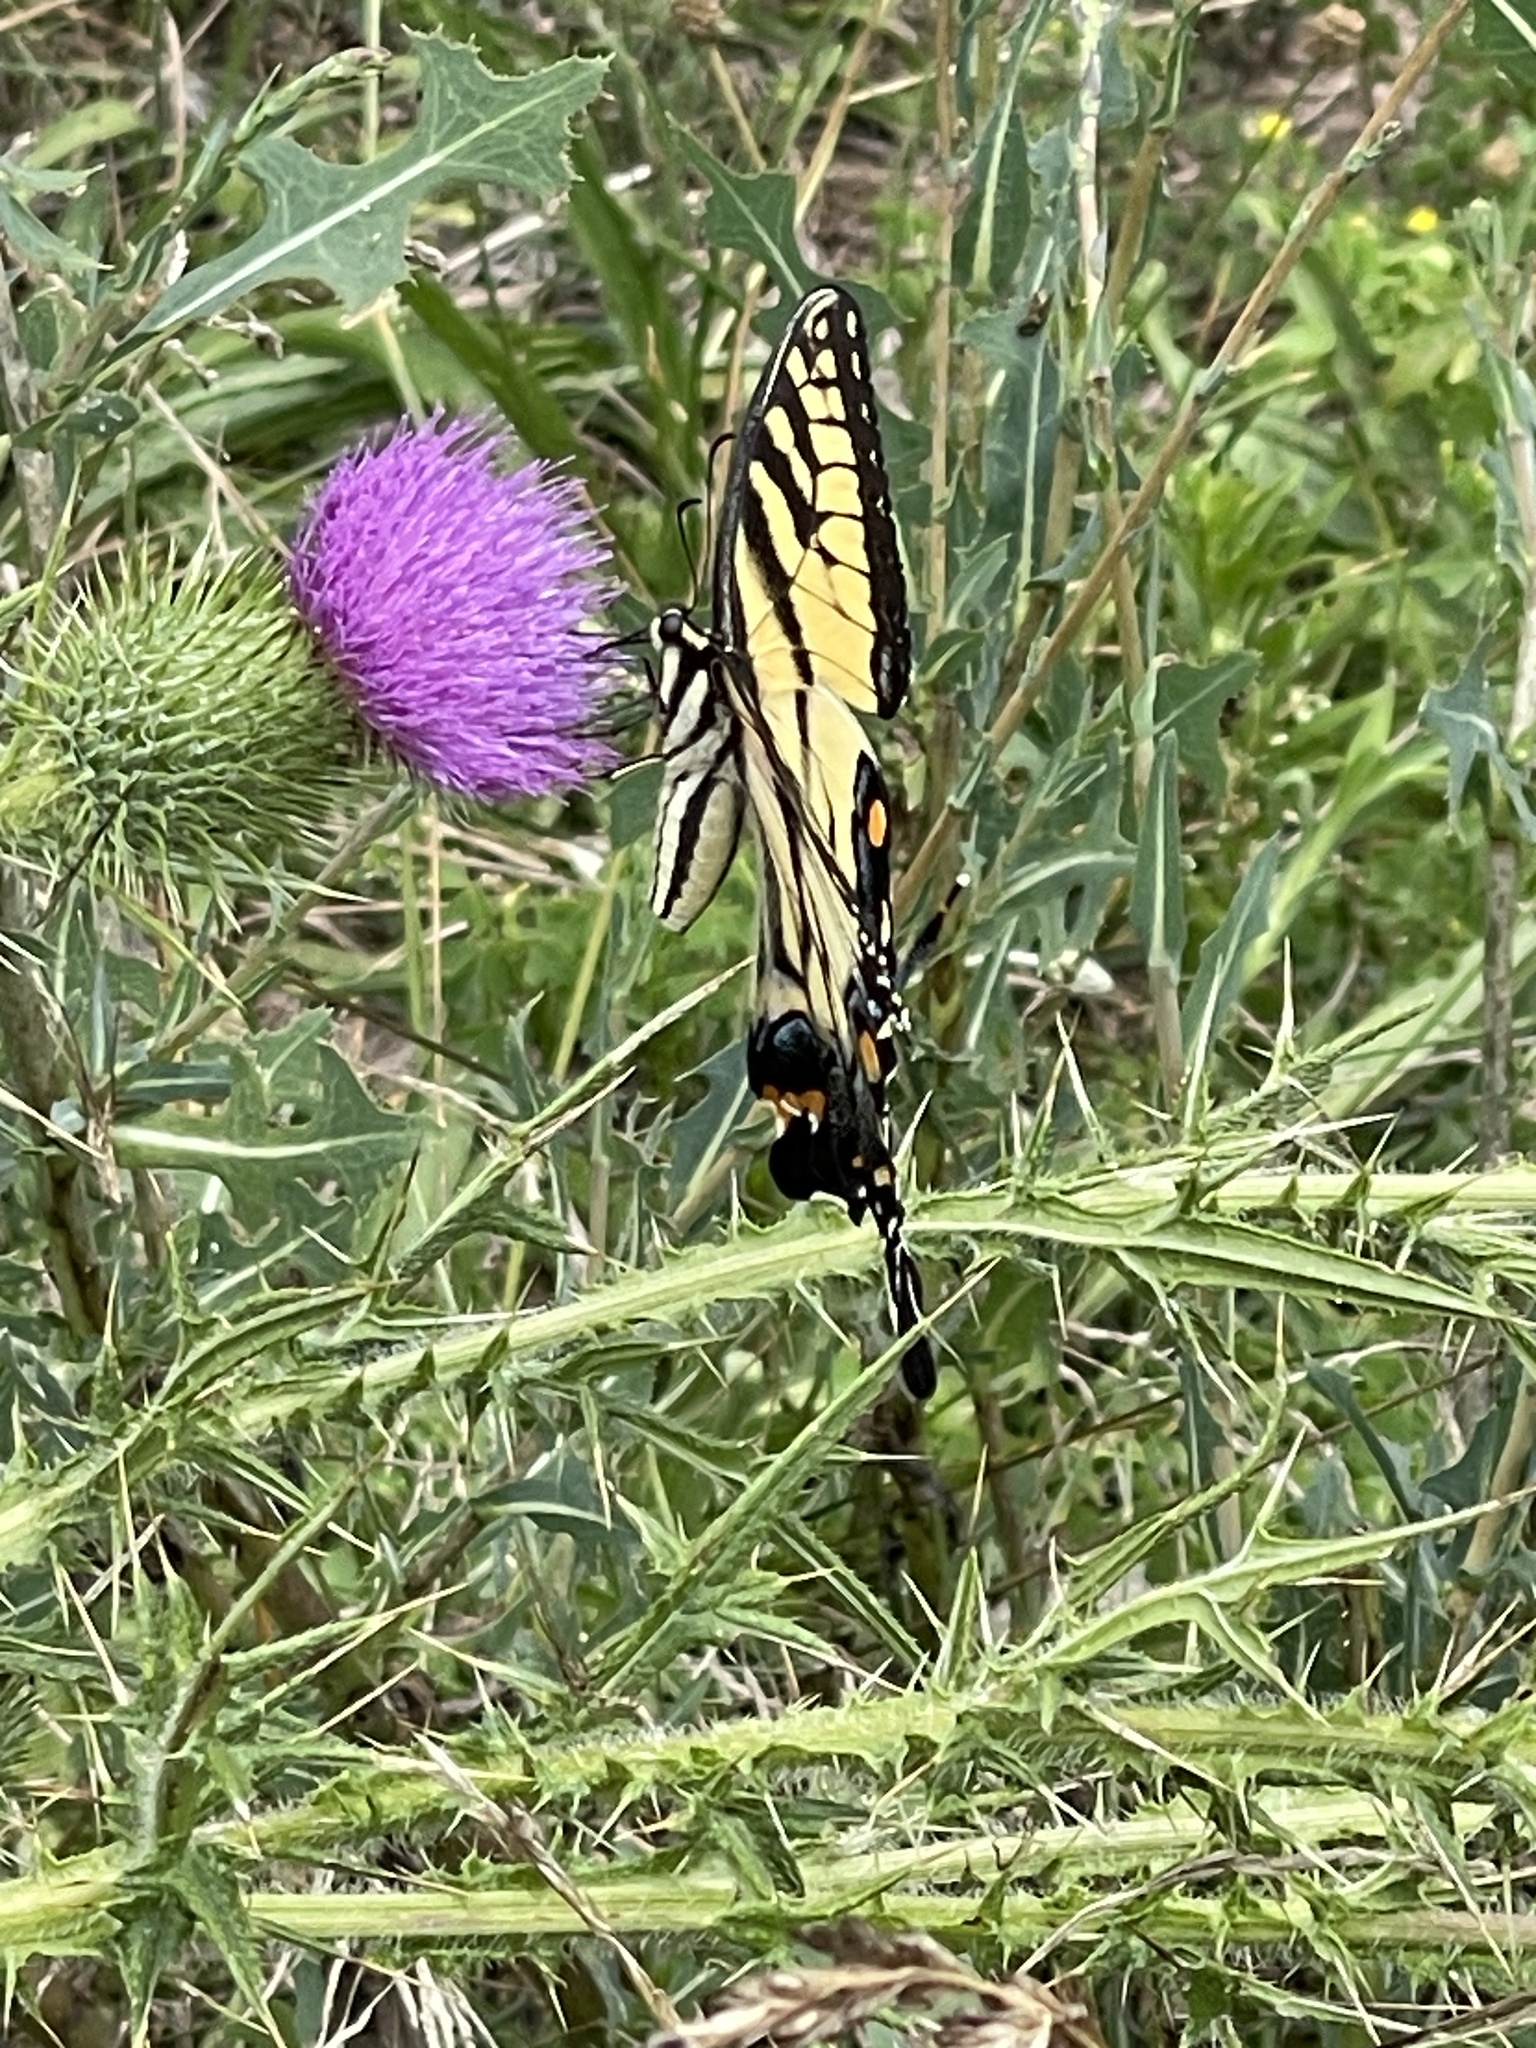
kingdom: Animalia
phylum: Arthropoda
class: Insecta
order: Lepidoptera
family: Papilionidae
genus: Papilio
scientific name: Papilio glaucus
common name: Tiger swallowtail
